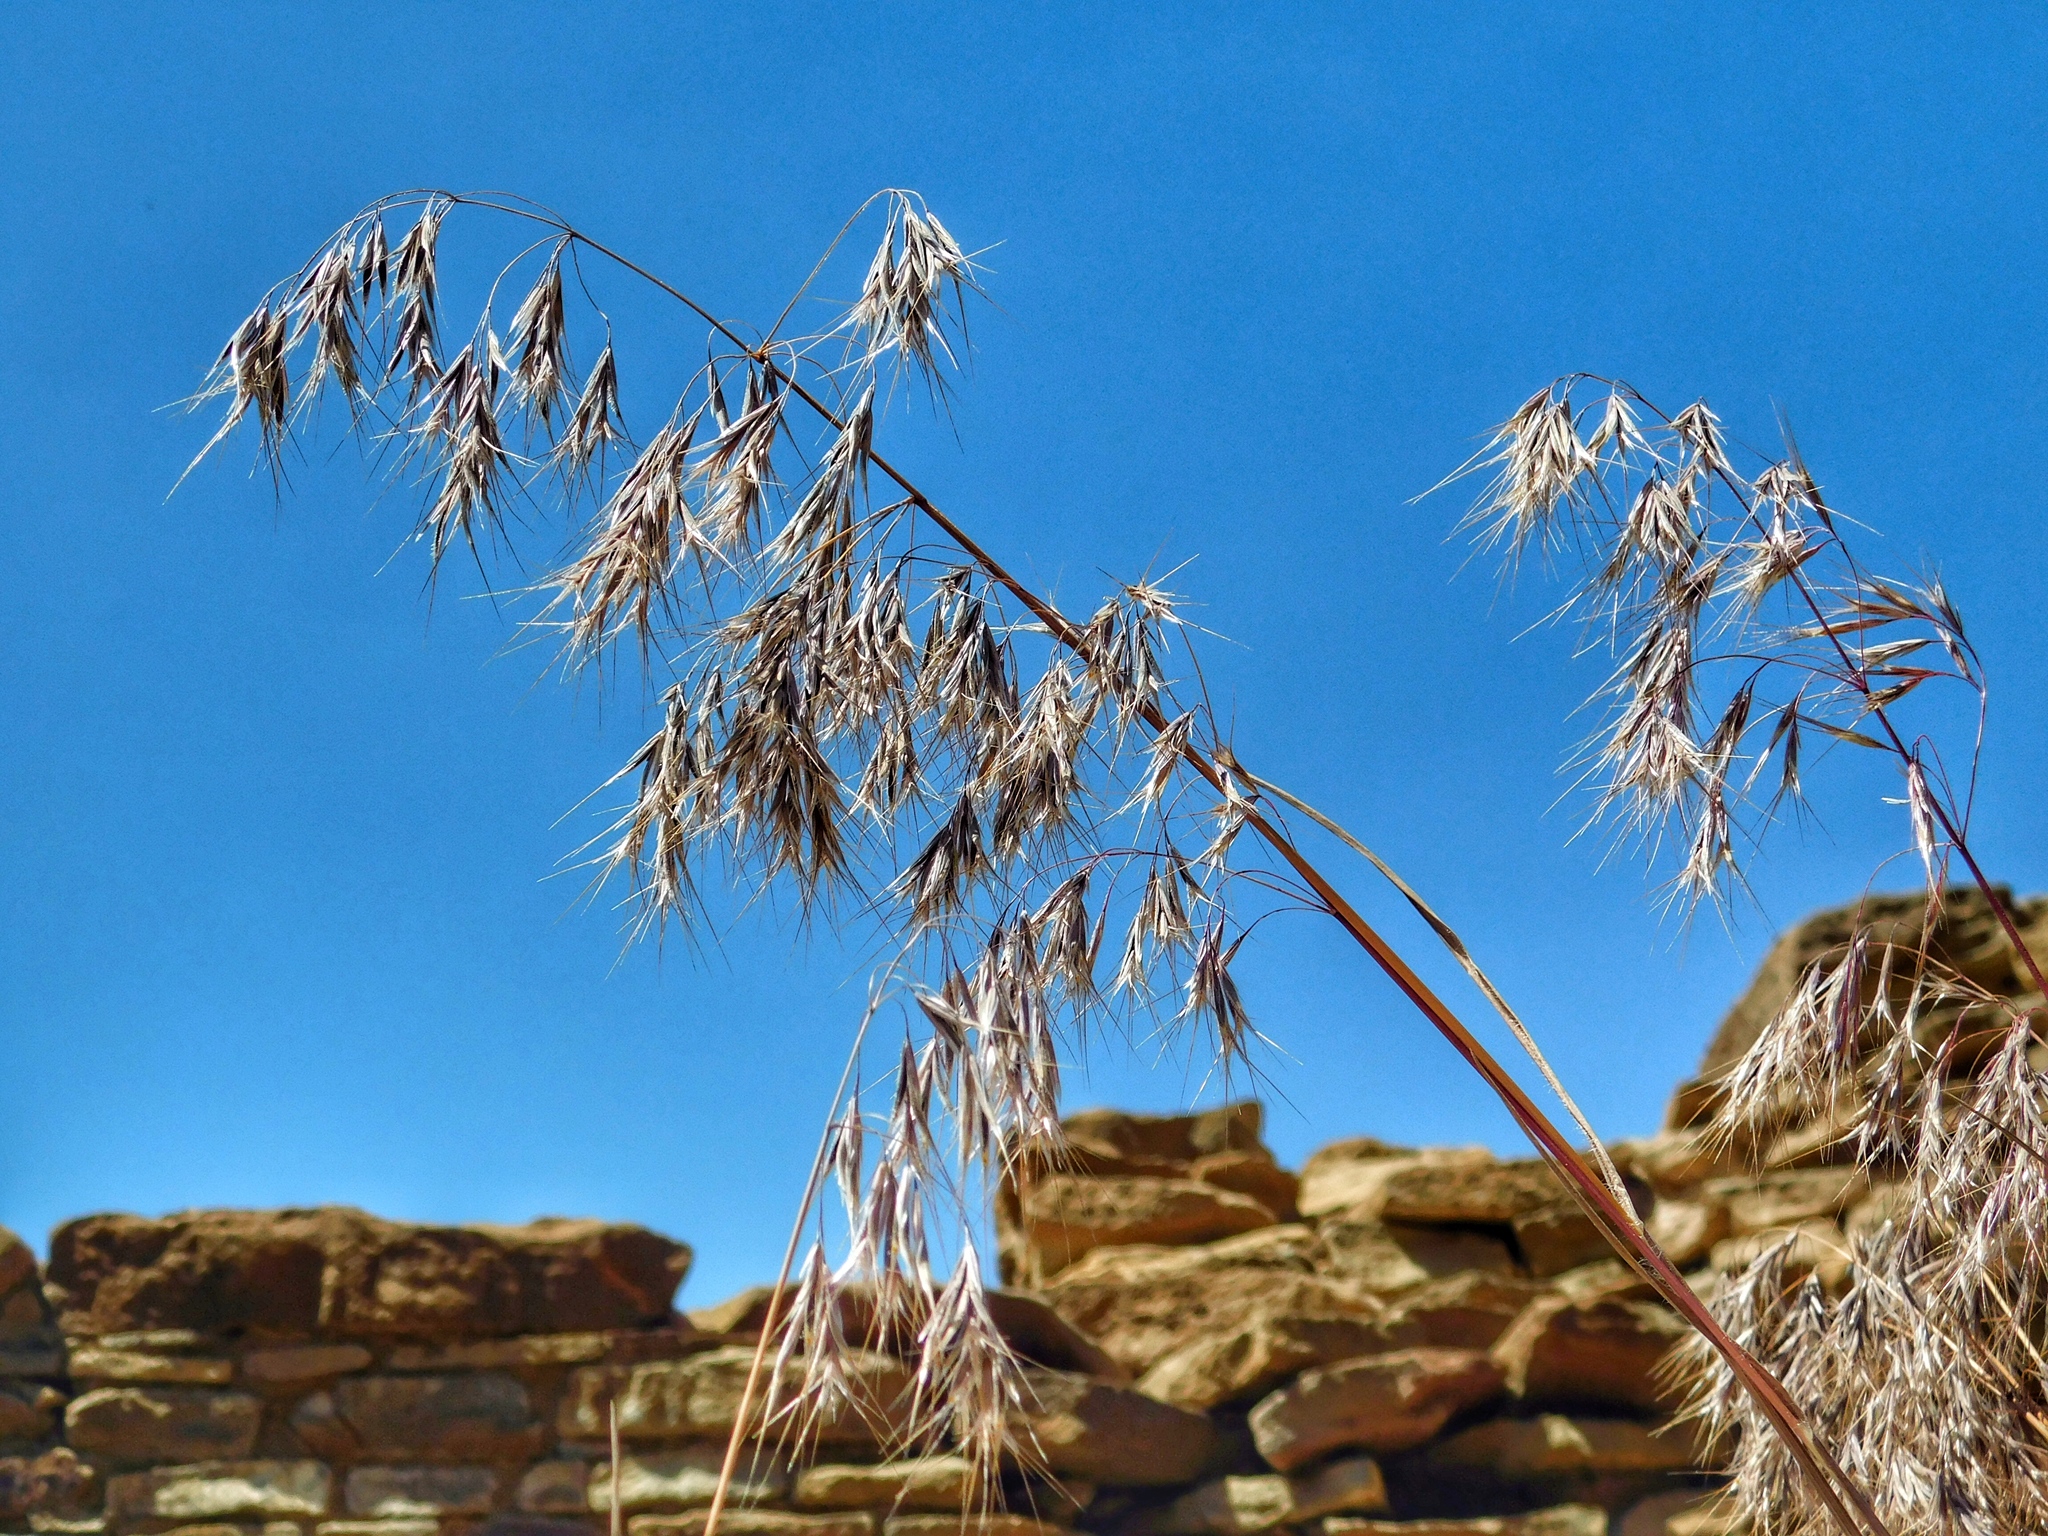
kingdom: Plantae
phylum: Tracheophyta
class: Liliopsida
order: Poales
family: Poaceae
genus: Bromus
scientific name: Bromus tectorum
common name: Cheatgrass
